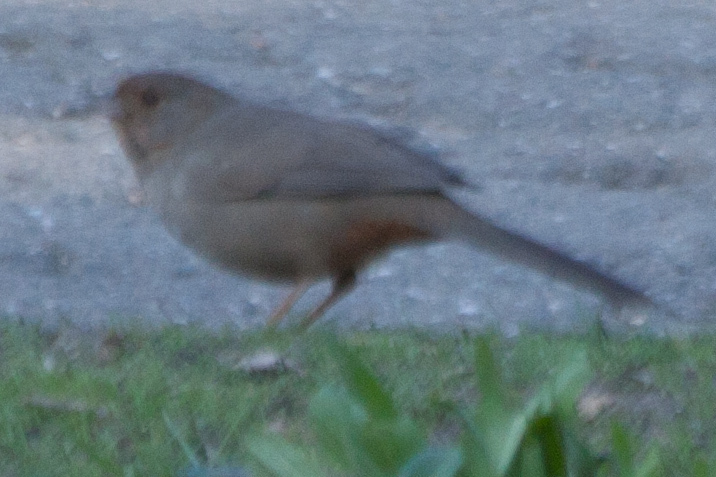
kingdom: Animalia
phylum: Chordata
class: Aves
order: Passeriformes
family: Passerellidae
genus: Melozone
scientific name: Melozone crissalis
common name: California towhee
